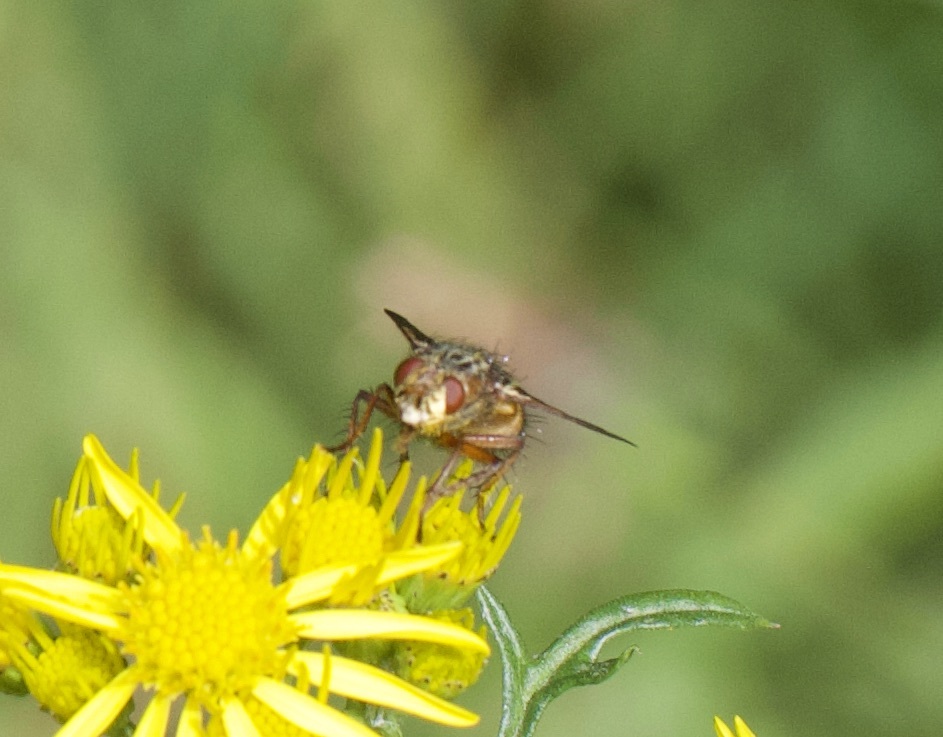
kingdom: Animalia
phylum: Arthropoda
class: Insecta
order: Diptera
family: Tachinidae
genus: Tachina
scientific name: Tachina fera
